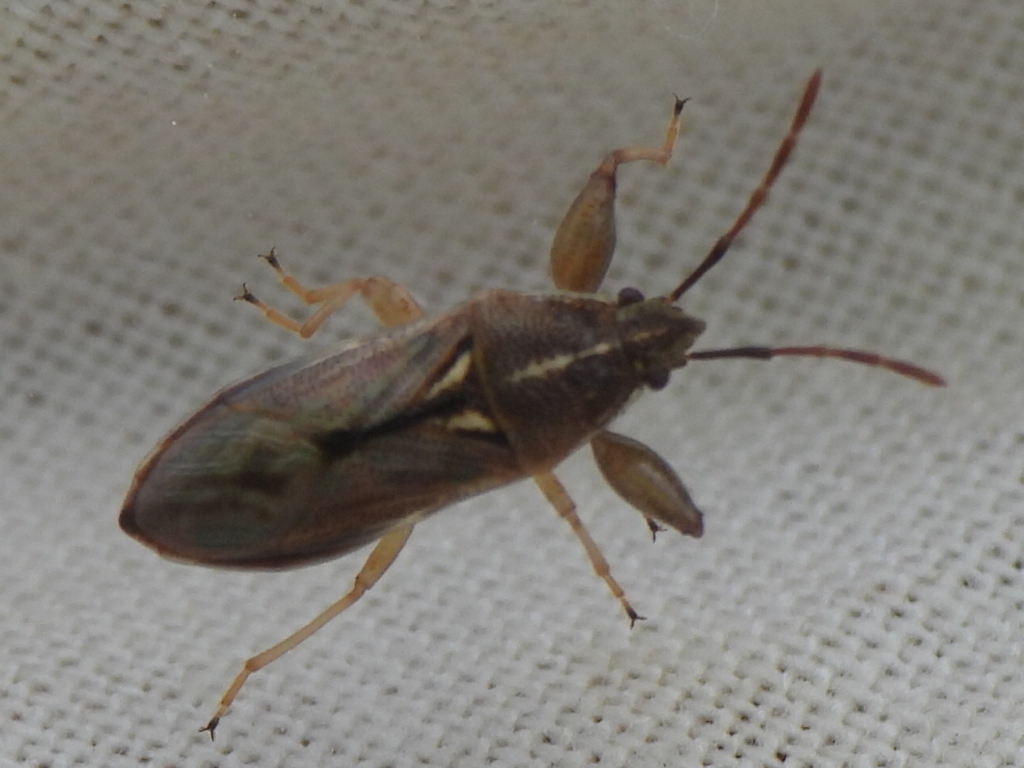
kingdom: Animalia
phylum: Arthropoda
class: Insecta
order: Hemiptera
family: Pachygronthidae
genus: Oedancala
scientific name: Oedancala dorsalis
